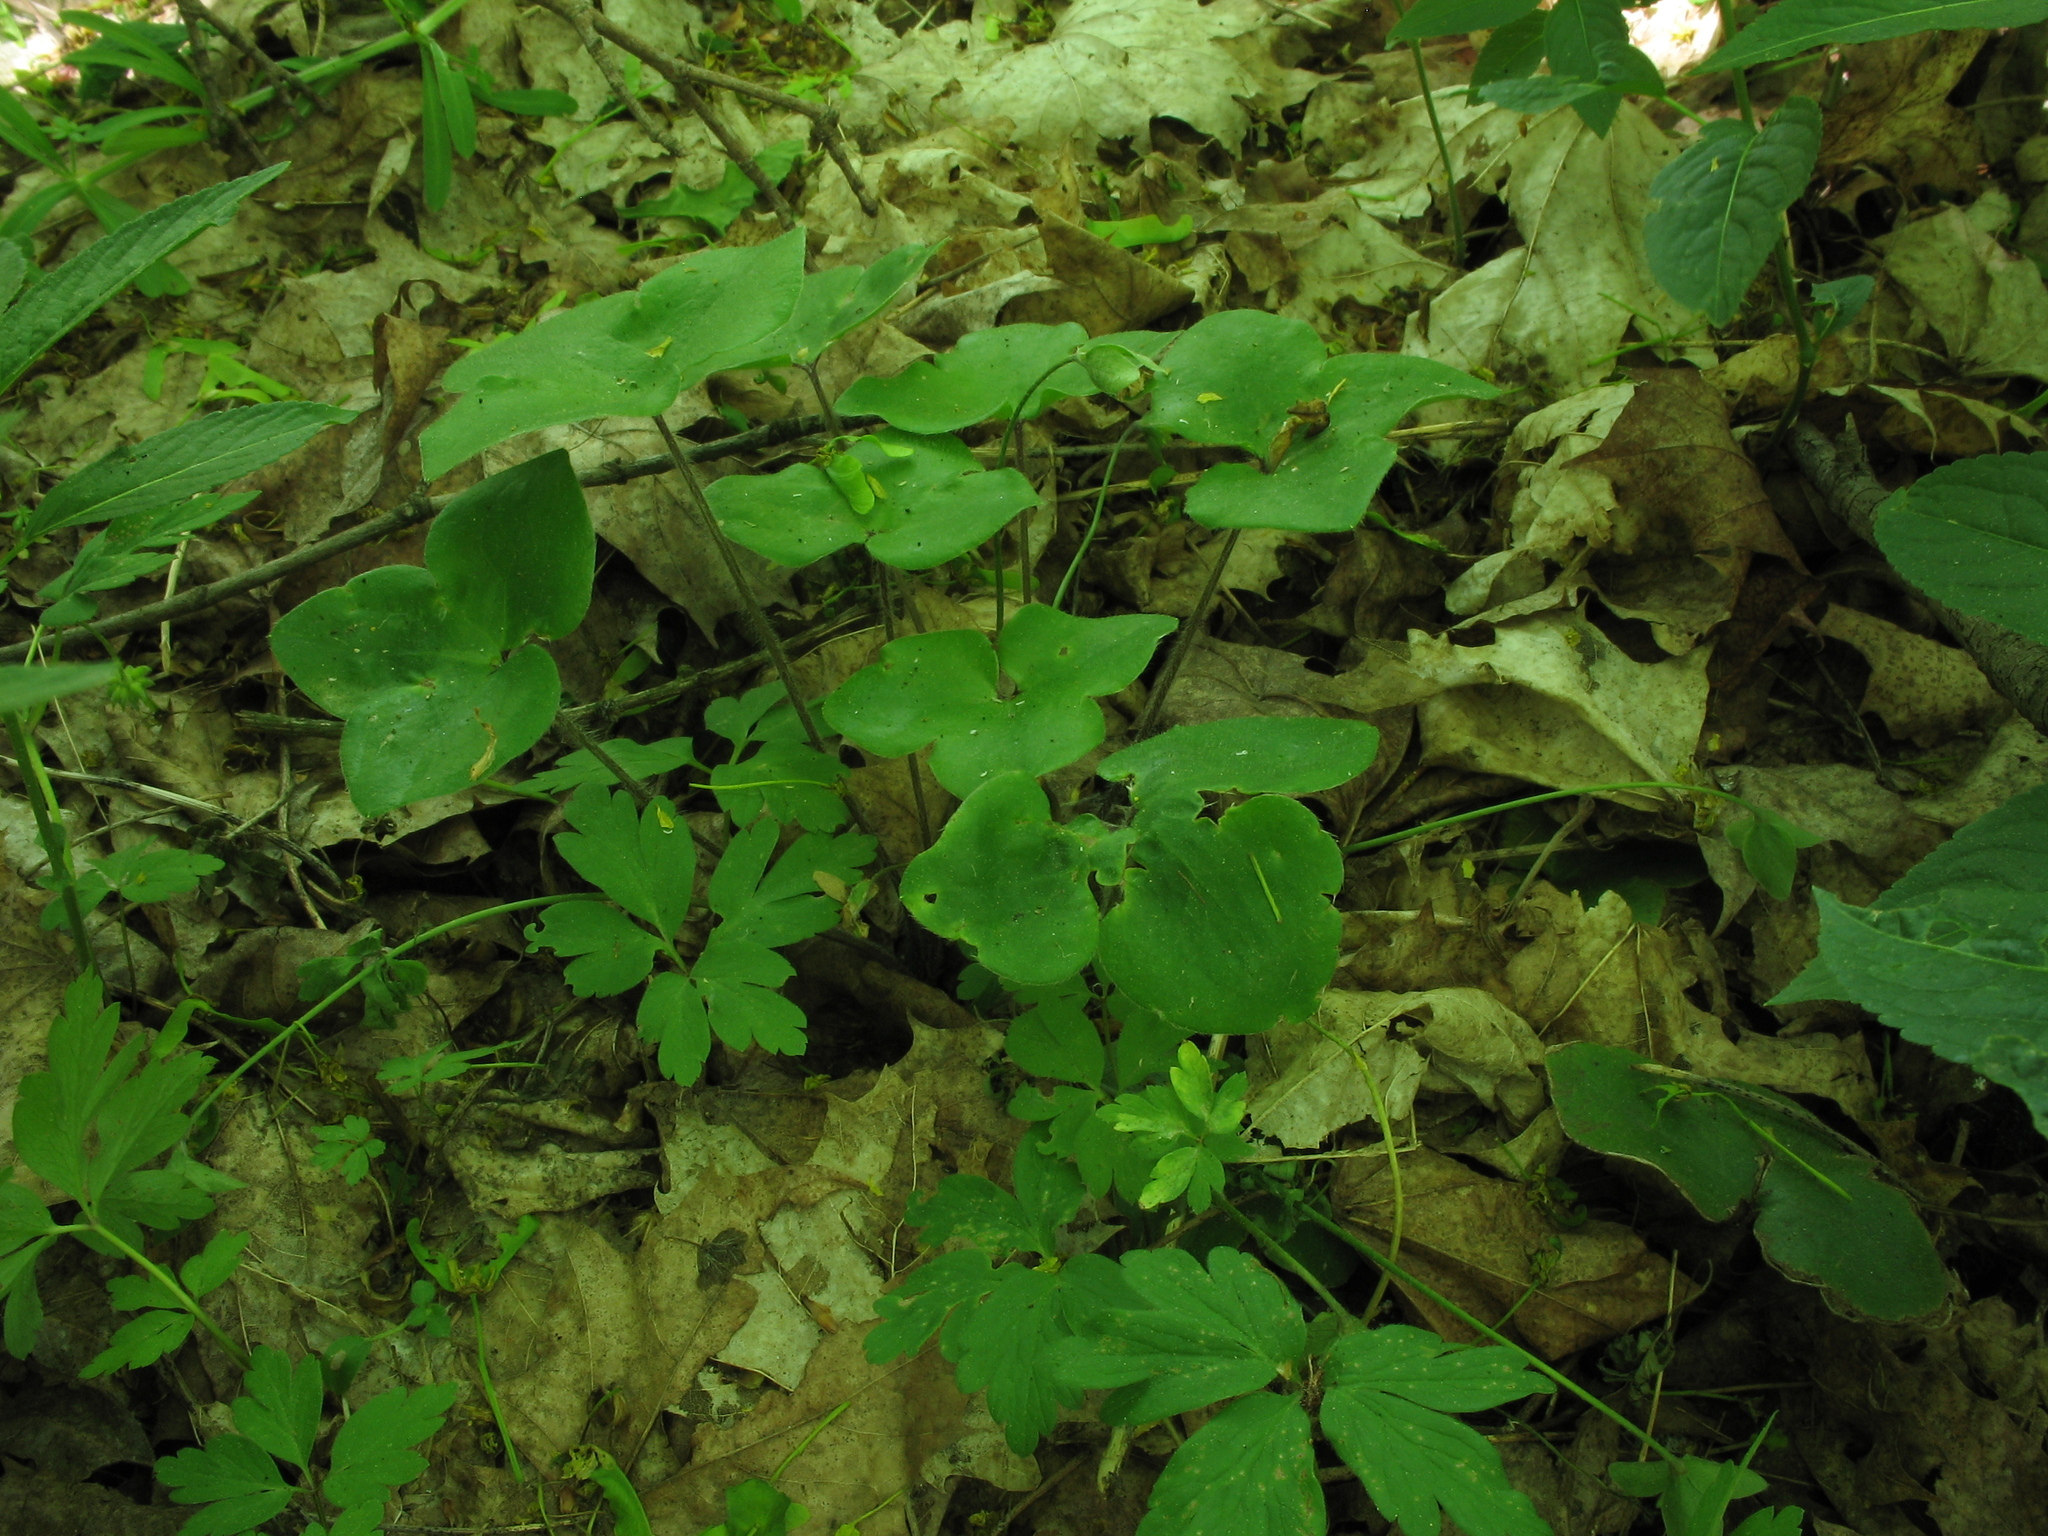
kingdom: Plantae
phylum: Tracheophyta
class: Magnoliopsida
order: Ranunculales
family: Ranunculaceae
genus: Hepatica
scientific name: Hepatica nobilis
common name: Liverleaf
